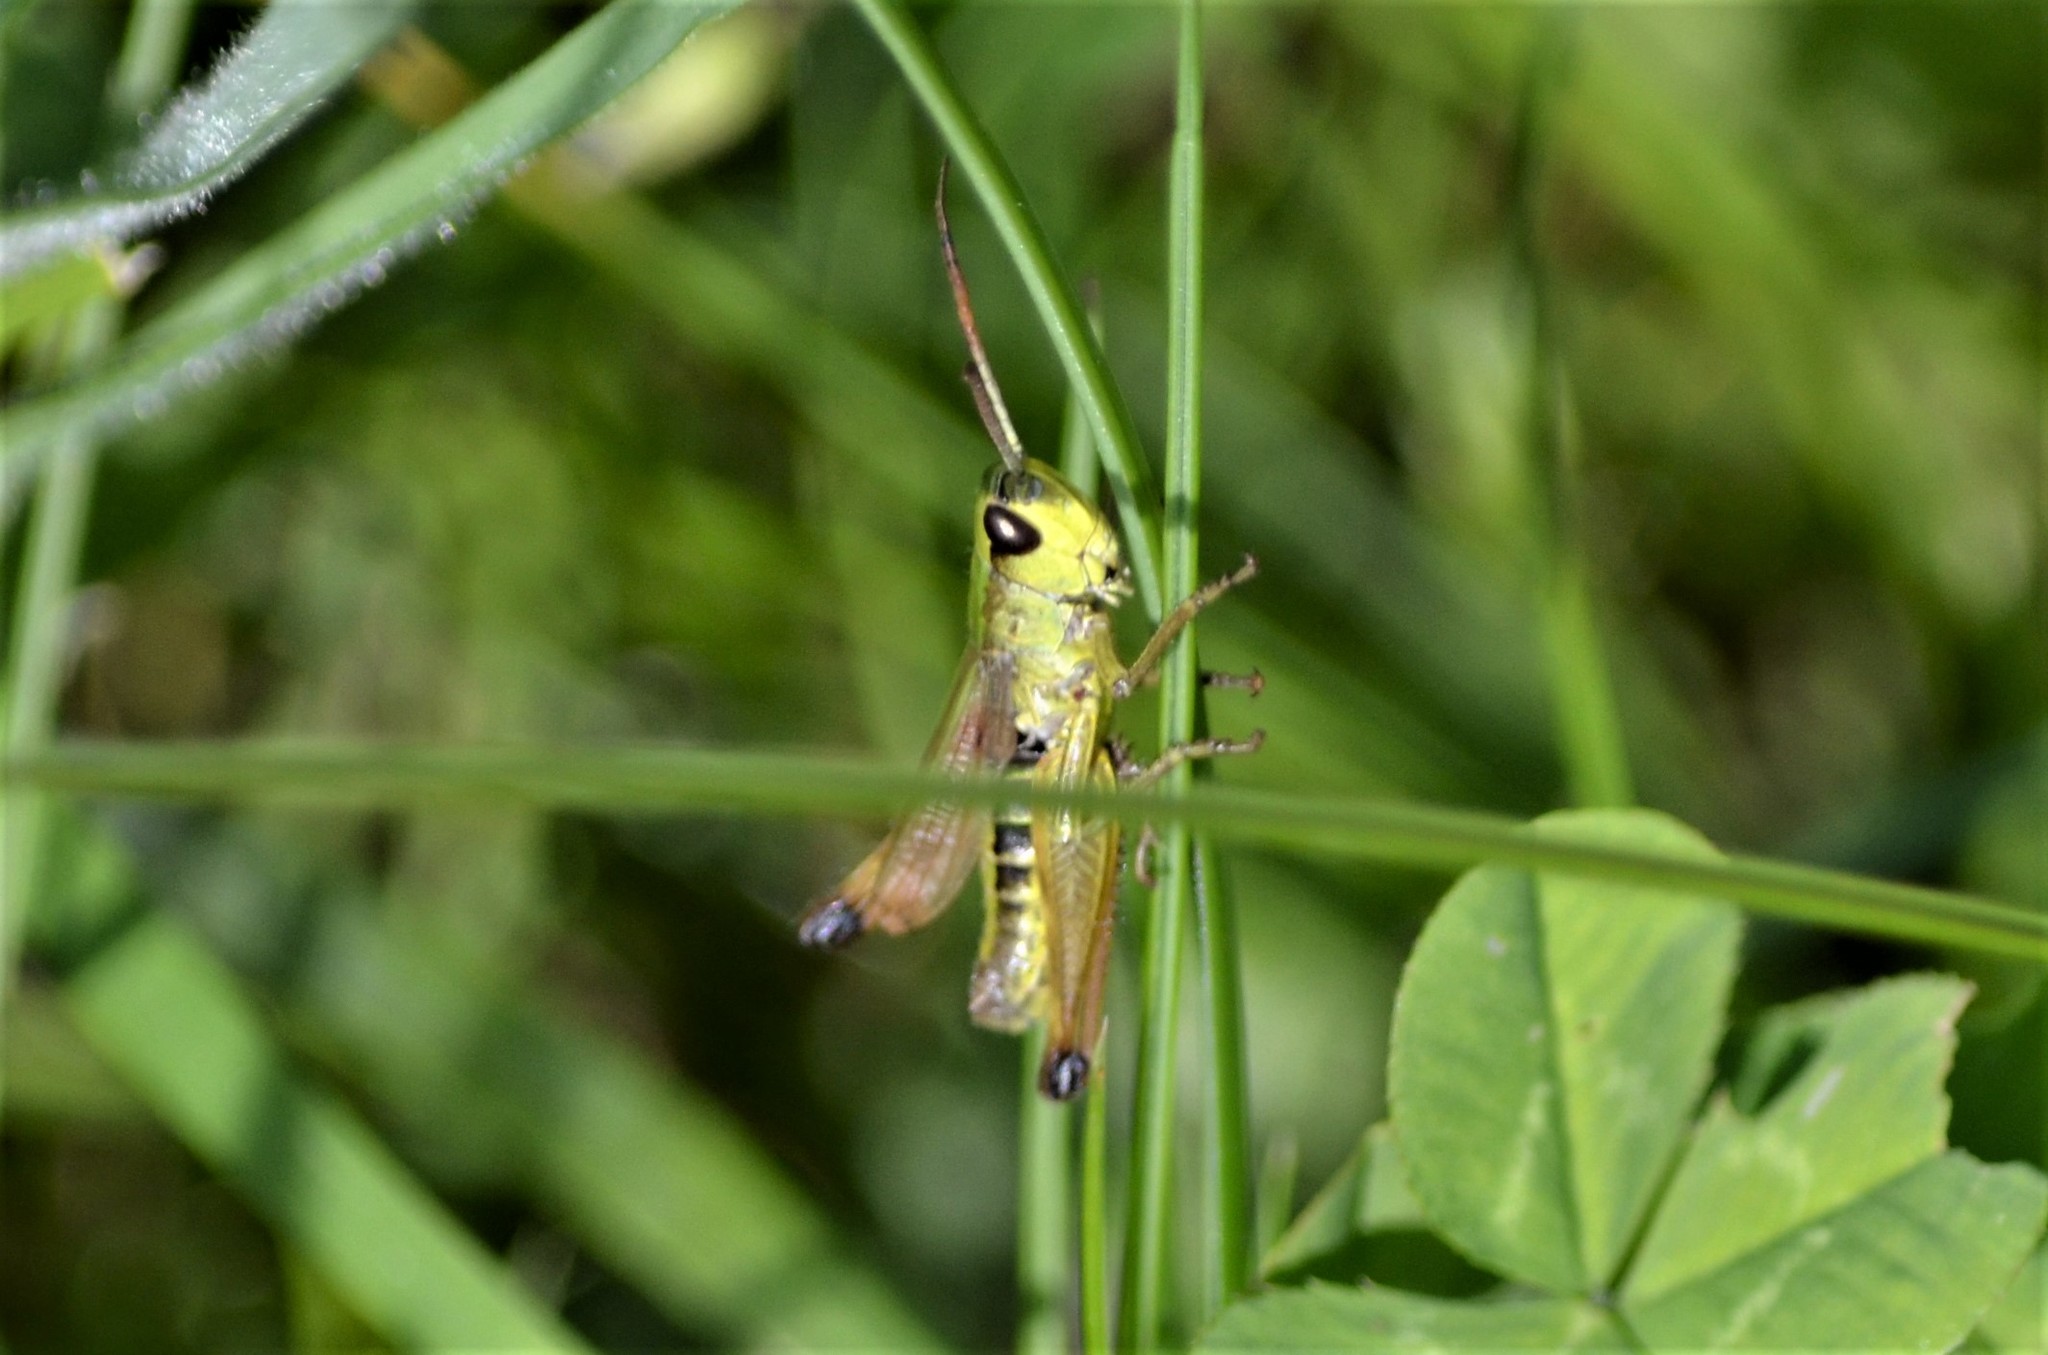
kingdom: Animalia
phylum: Arthropoda
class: Insecta
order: Orthoptera
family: Acrididae
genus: Pseudochorthippus
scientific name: Pseudochorthippus parallelus
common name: Meadow grasshopper
